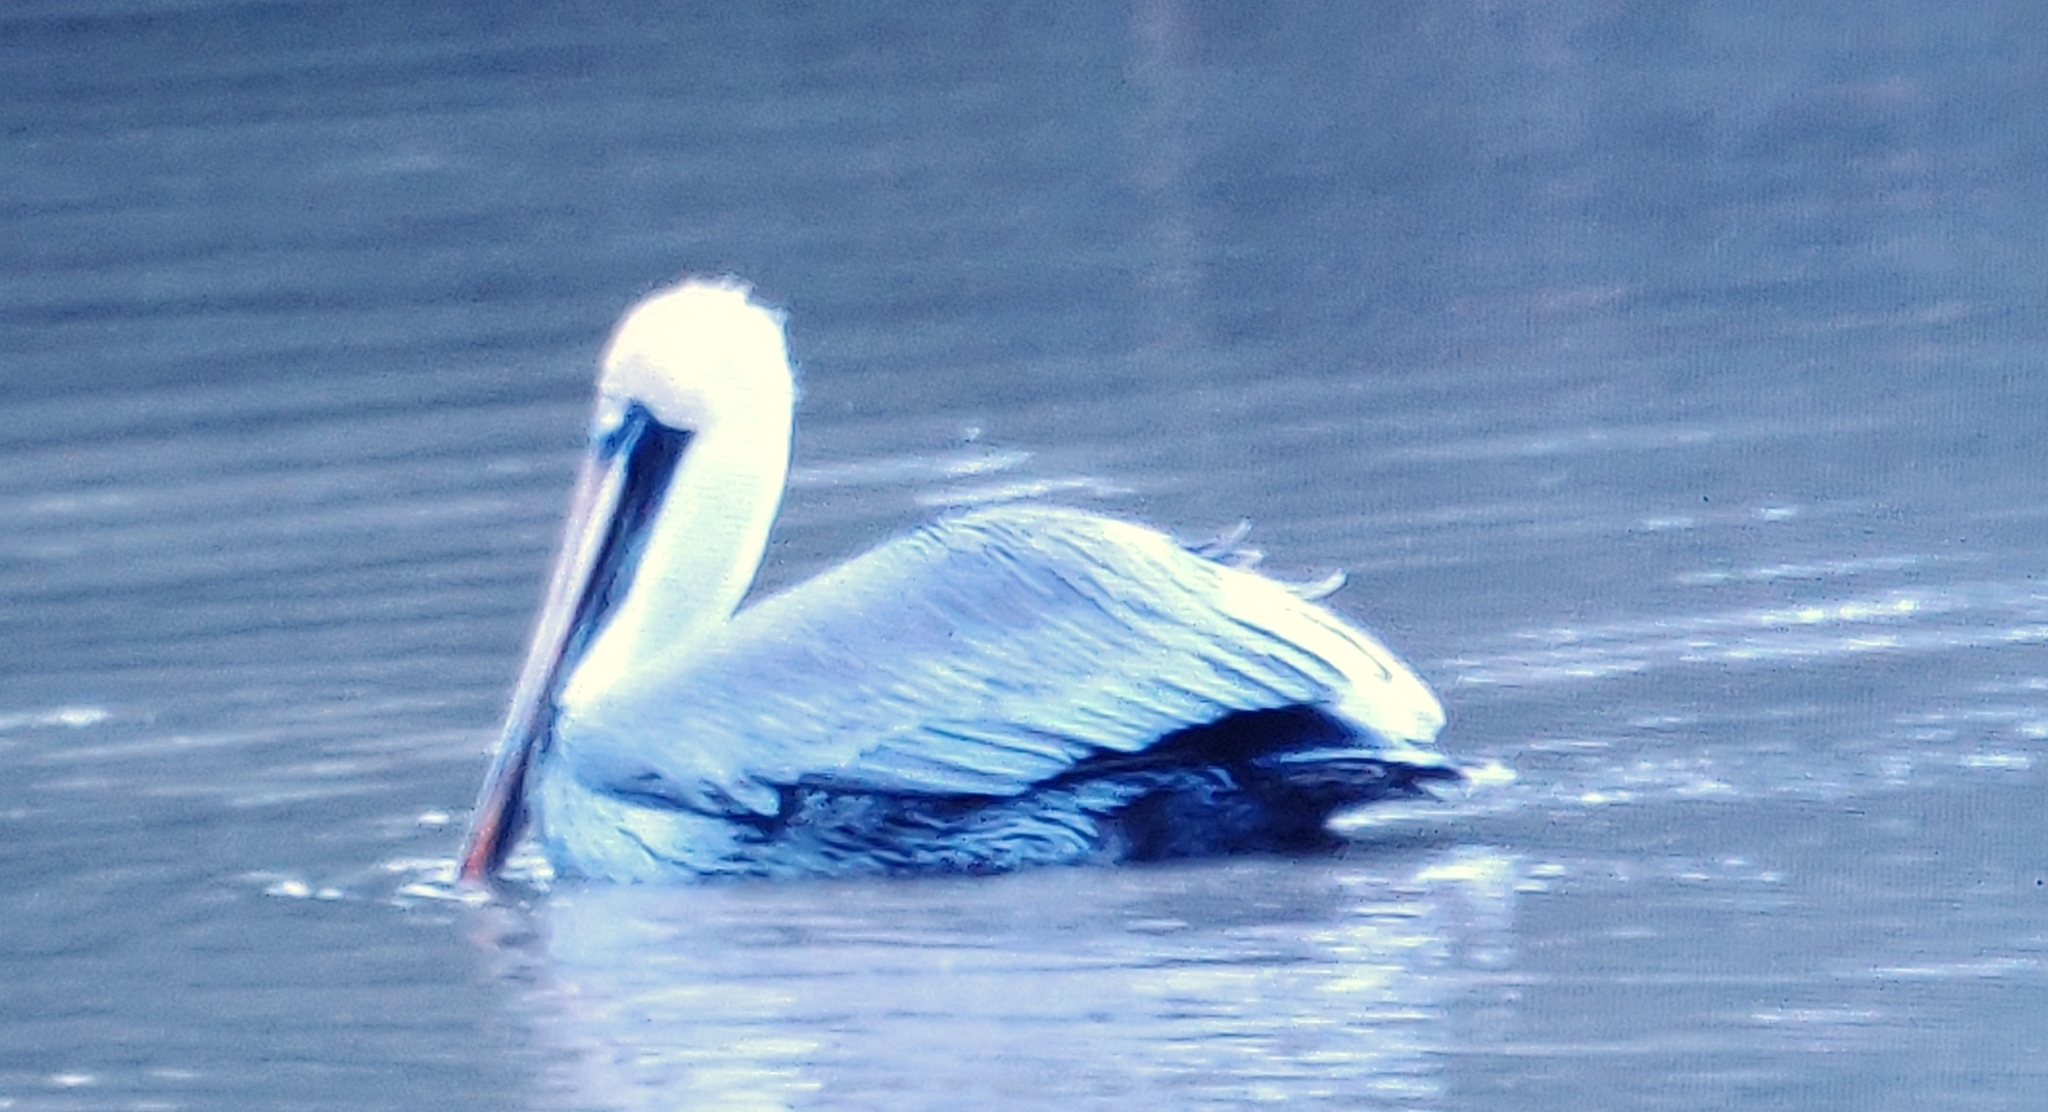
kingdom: Animalia
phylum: Chordata
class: Aves
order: Pelecaniformes
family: Pelecanidae
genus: Pelecanus
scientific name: Pelecanus occidentalis
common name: Brown pelican
